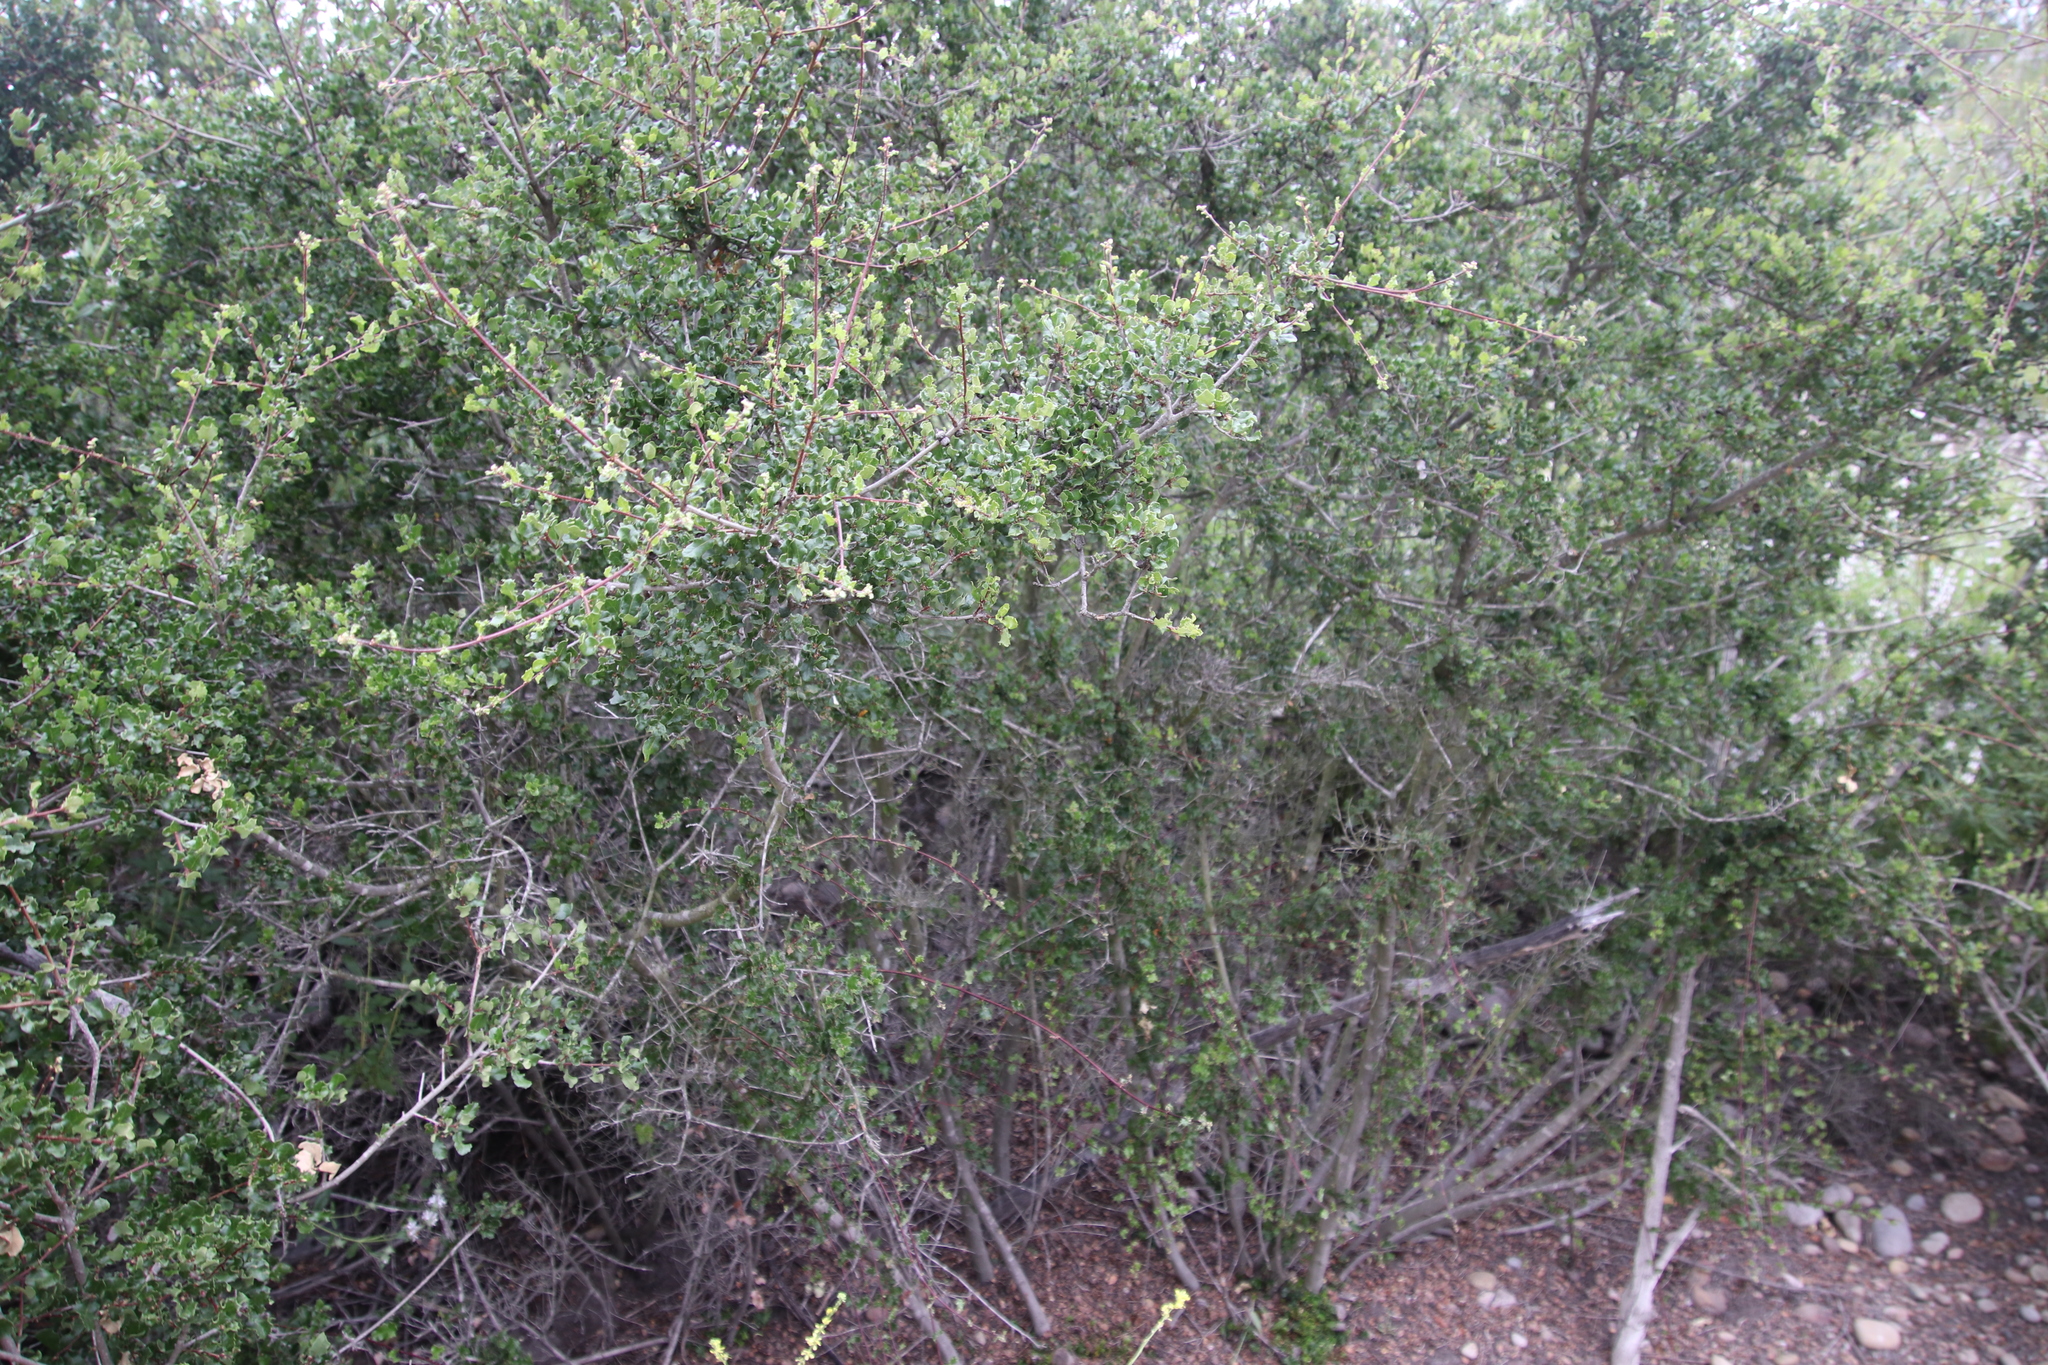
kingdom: Plantae
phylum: Tracheophyta
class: Magnoliopsida
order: Fagales
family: Fagaceae
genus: Quercus
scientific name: Quercus dumosa
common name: Coastal sage scrub oak
